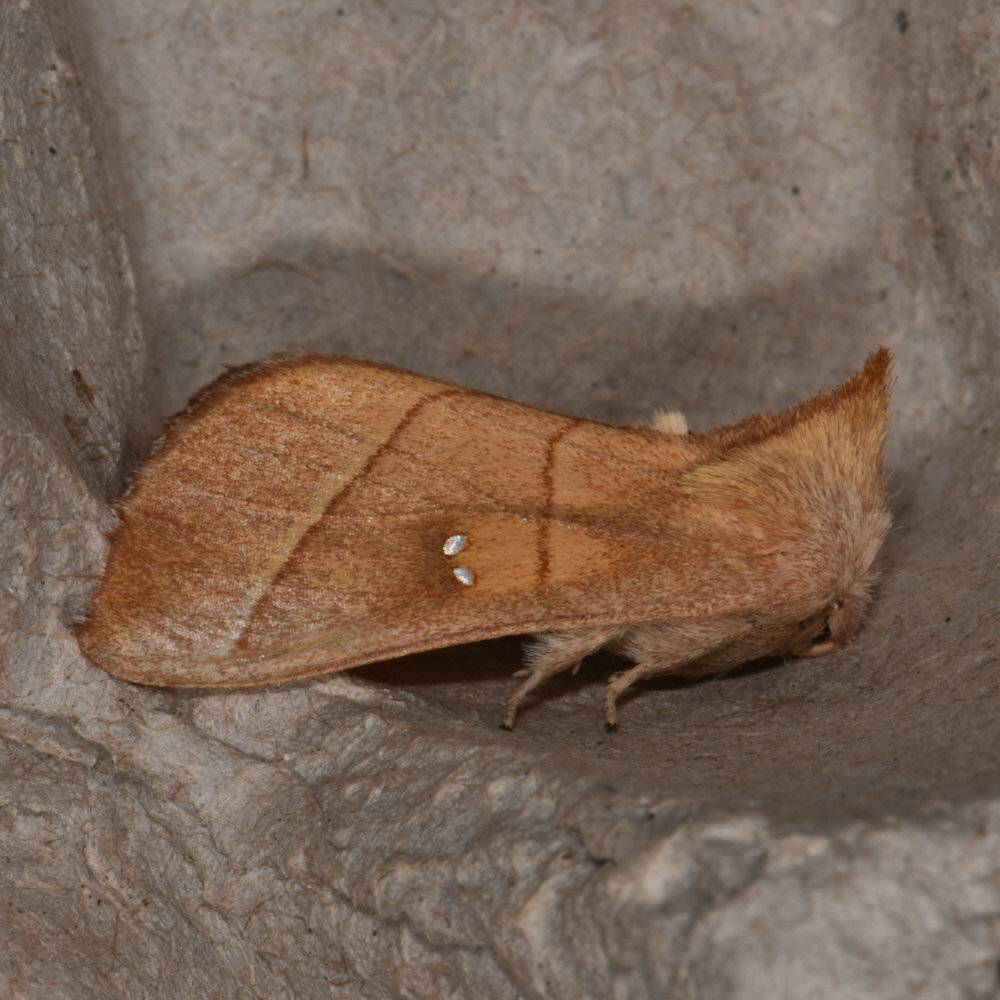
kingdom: Animalia
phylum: Arthropoda
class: Insecta
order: Lepidoptera
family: Notodontidae
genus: Nadata
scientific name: Nadata gibbosa
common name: White-dotted prominent
